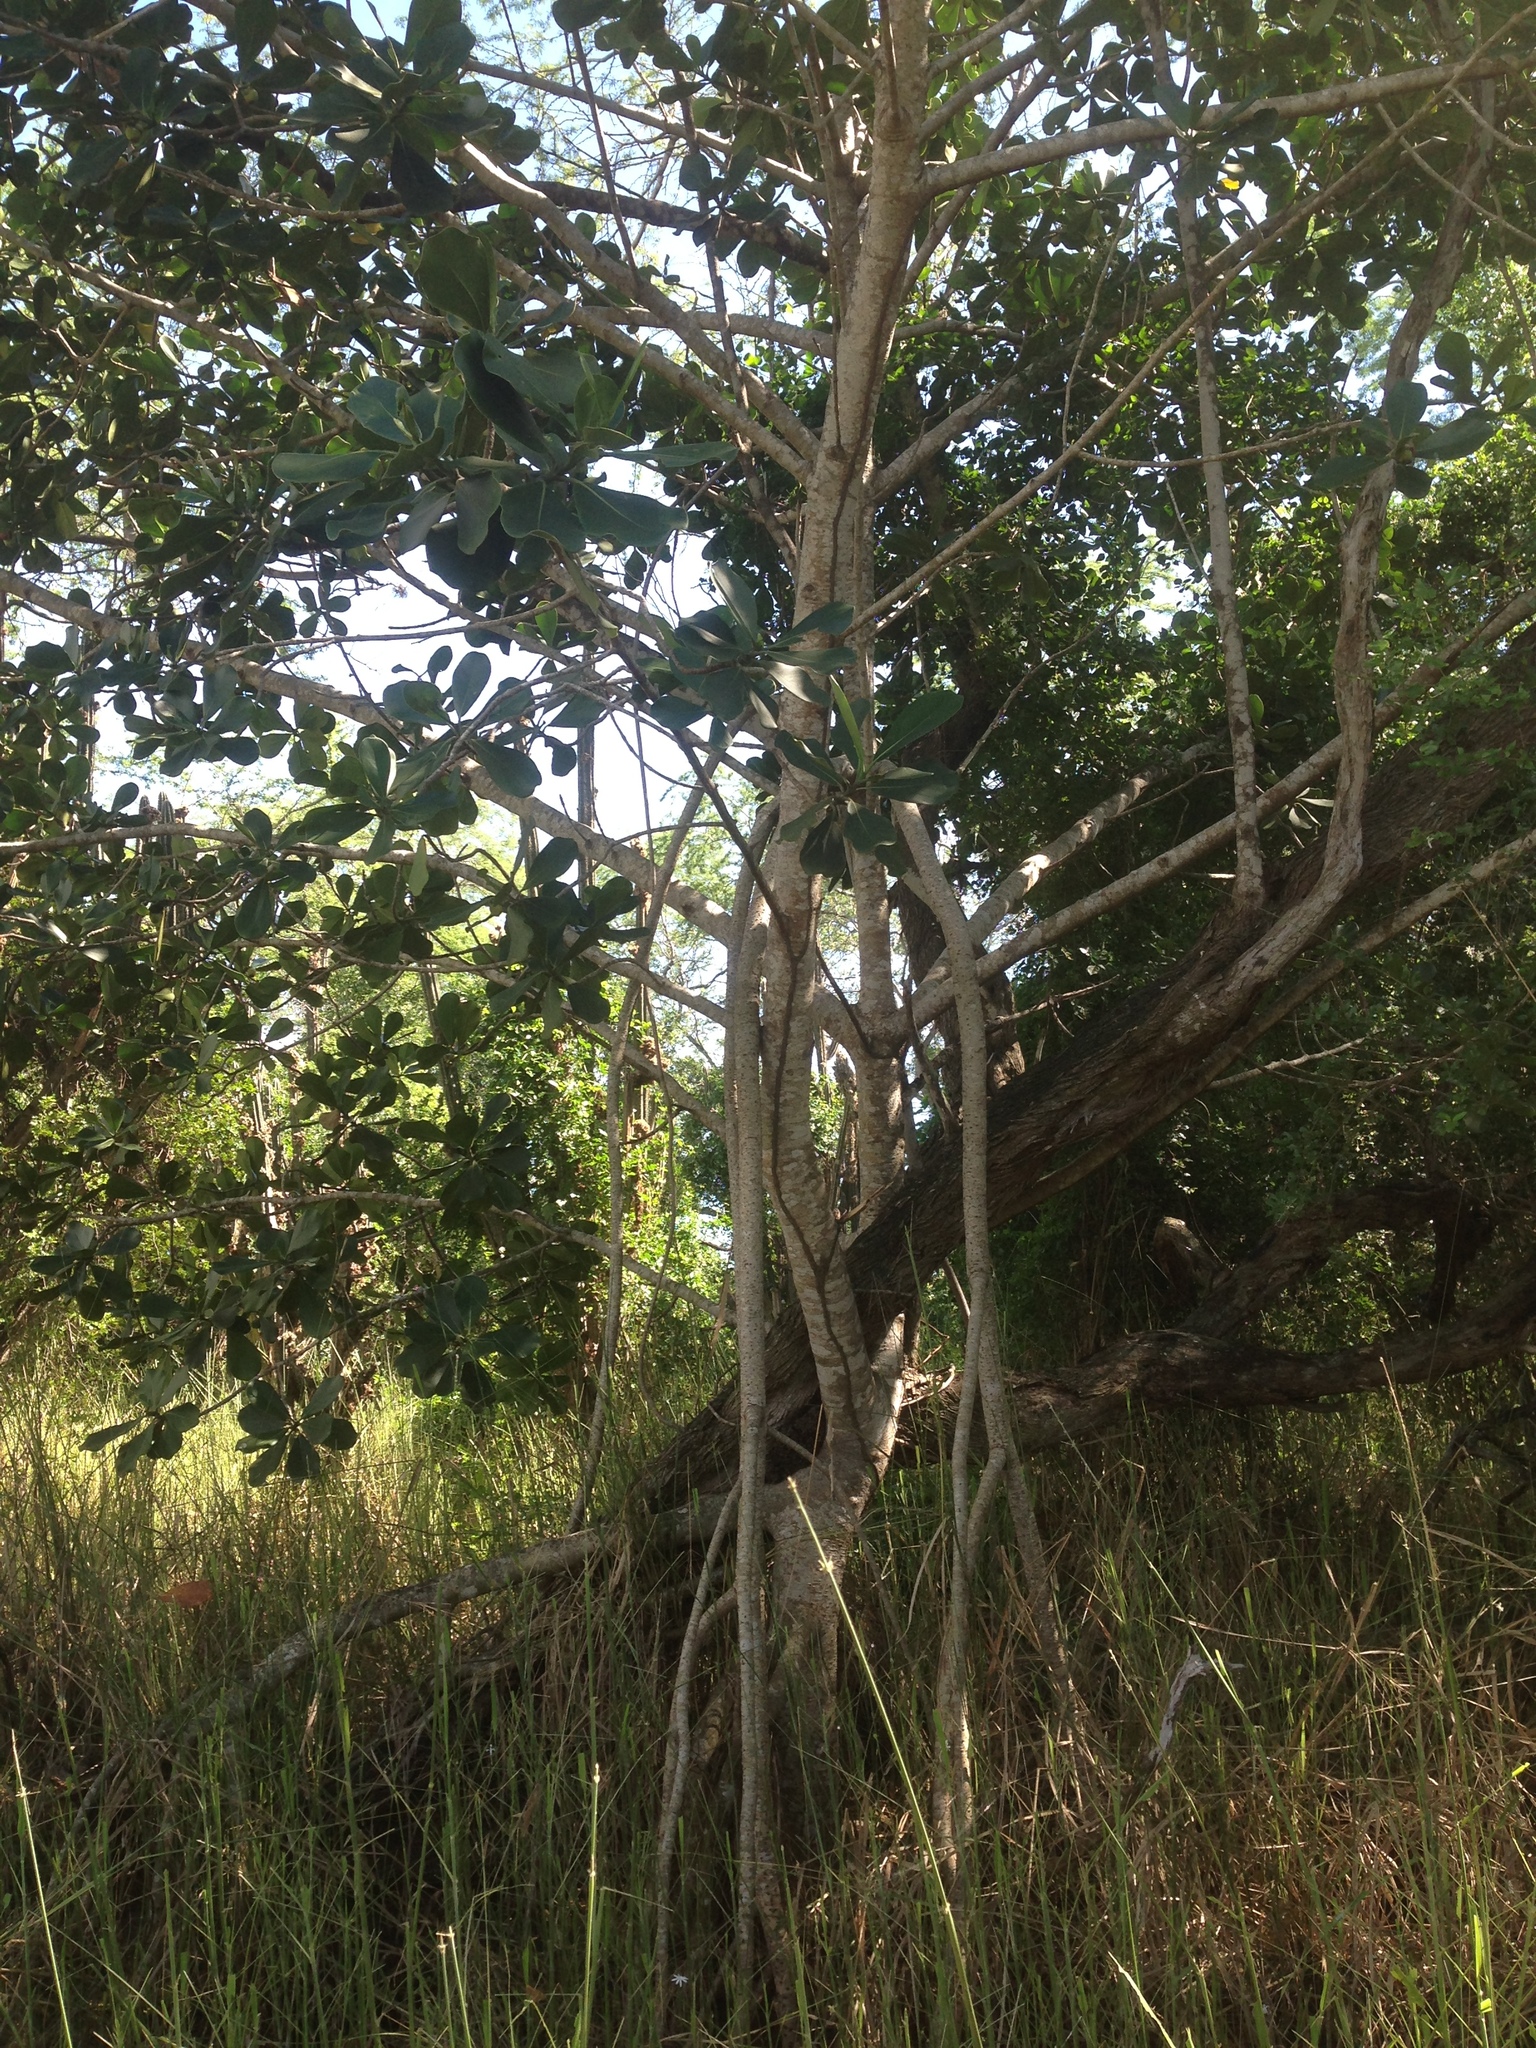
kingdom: Plantae
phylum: Tracheophyta
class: Magnoliopsida
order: Malpighiales
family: Clusiaceae
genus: Clusia
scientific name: Clusia rosea
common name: Scotch attorney
